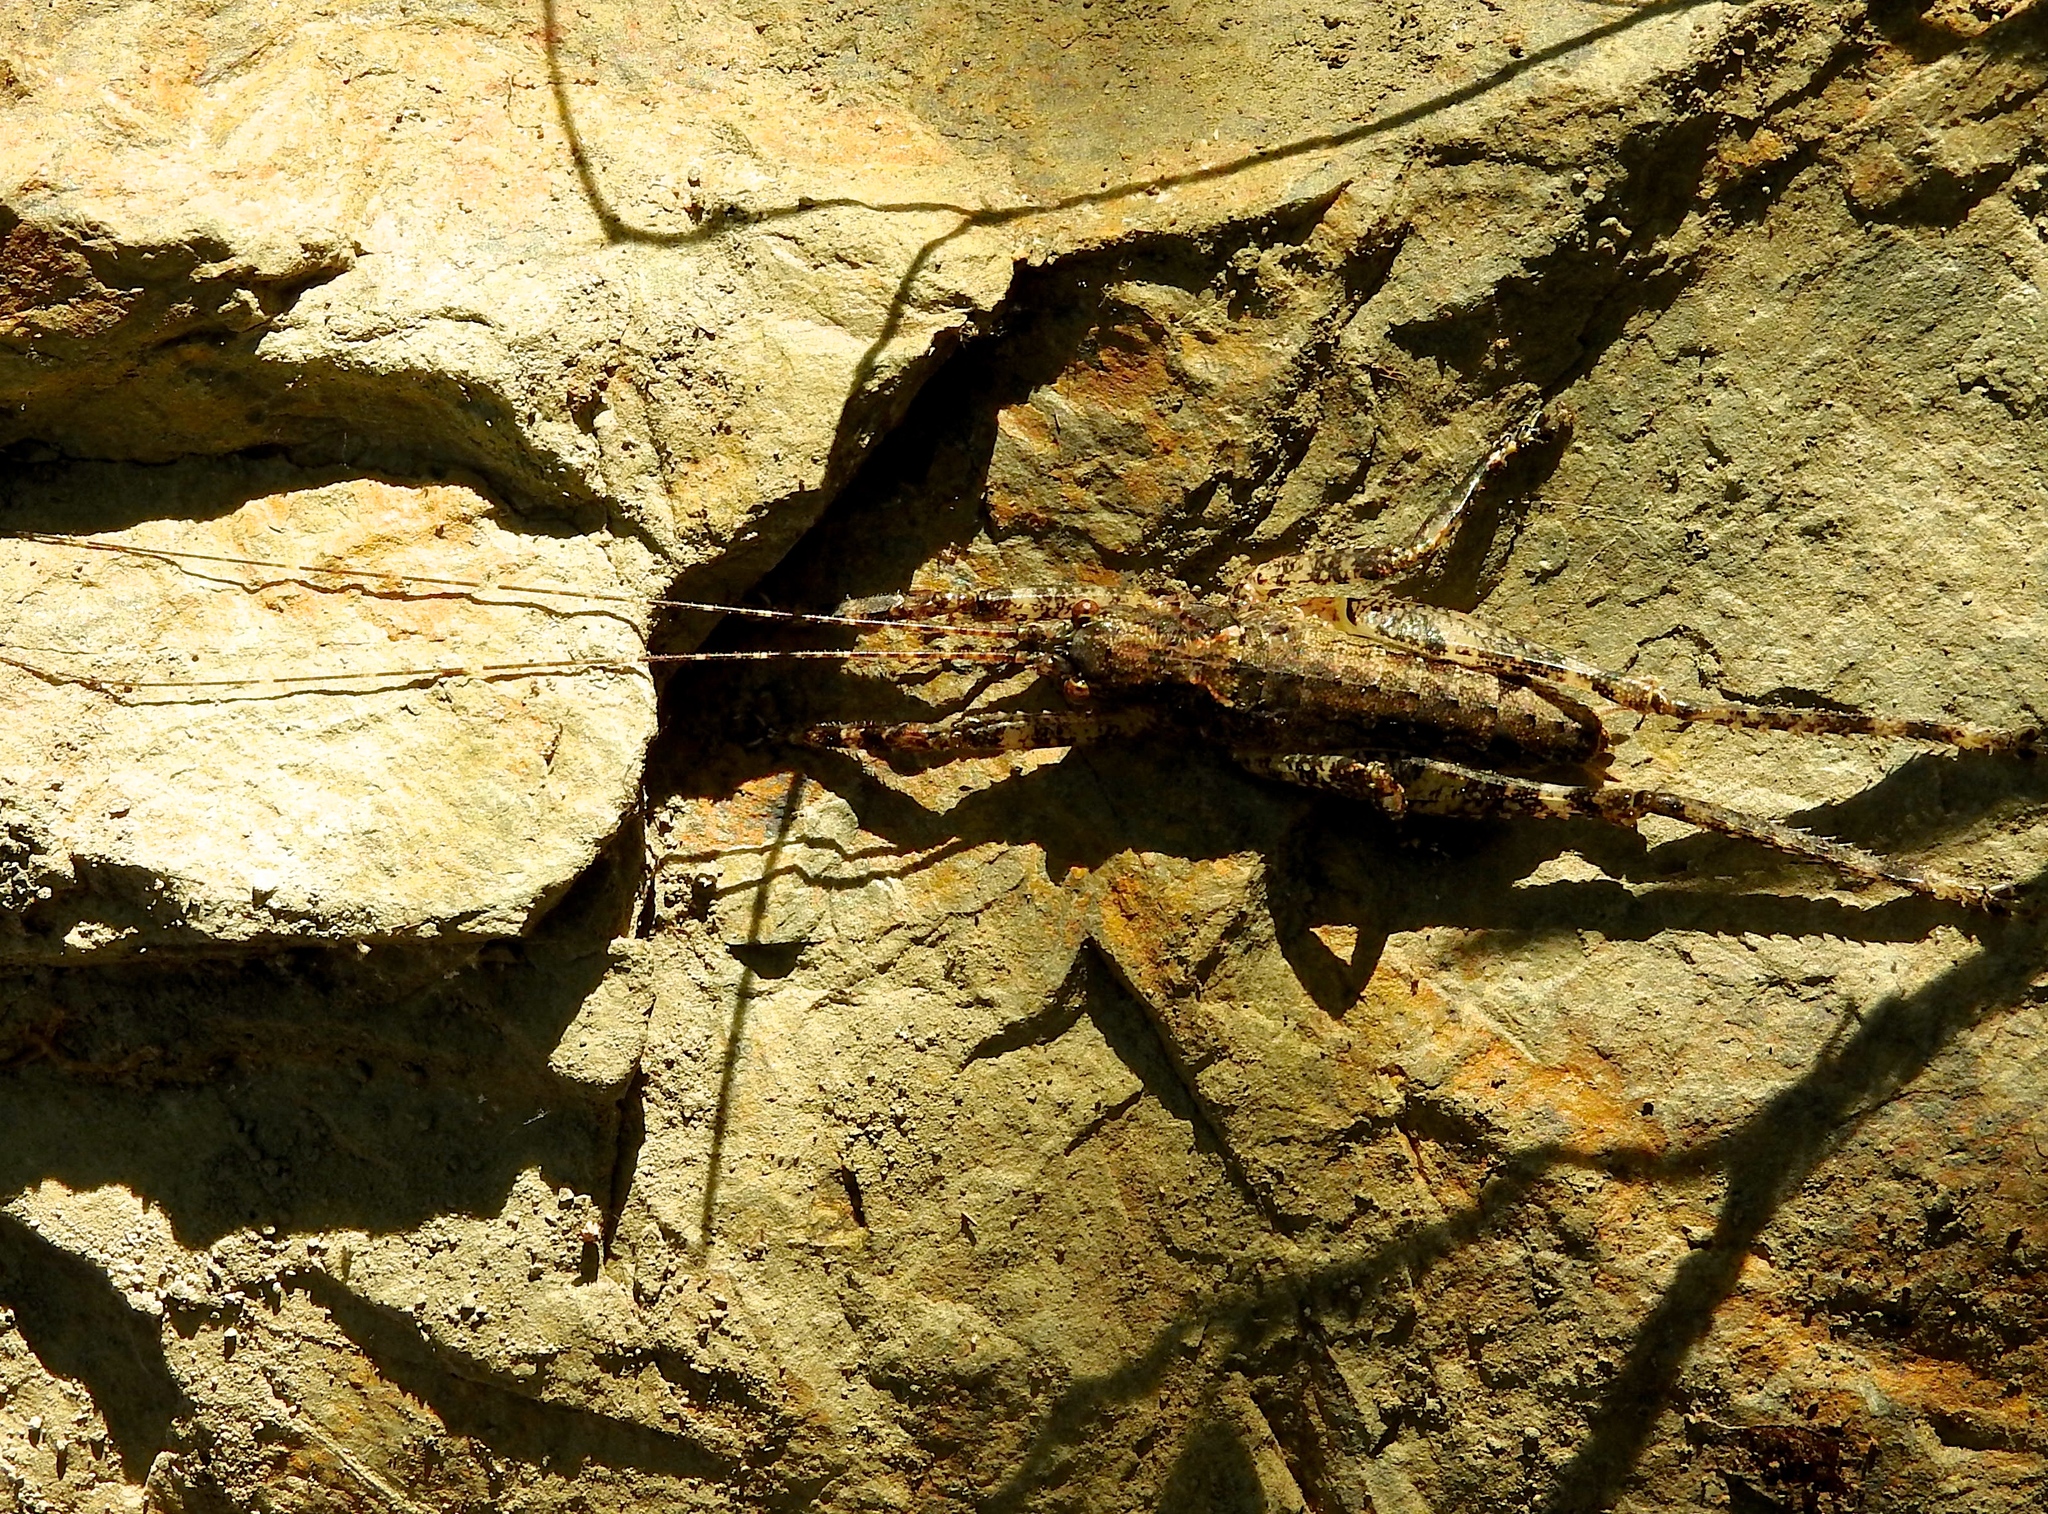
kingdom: Animalia
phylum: Arthropoda
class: Insecta
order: Orthoptera
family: Tettigoniidae
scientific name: Tettigoniidae
